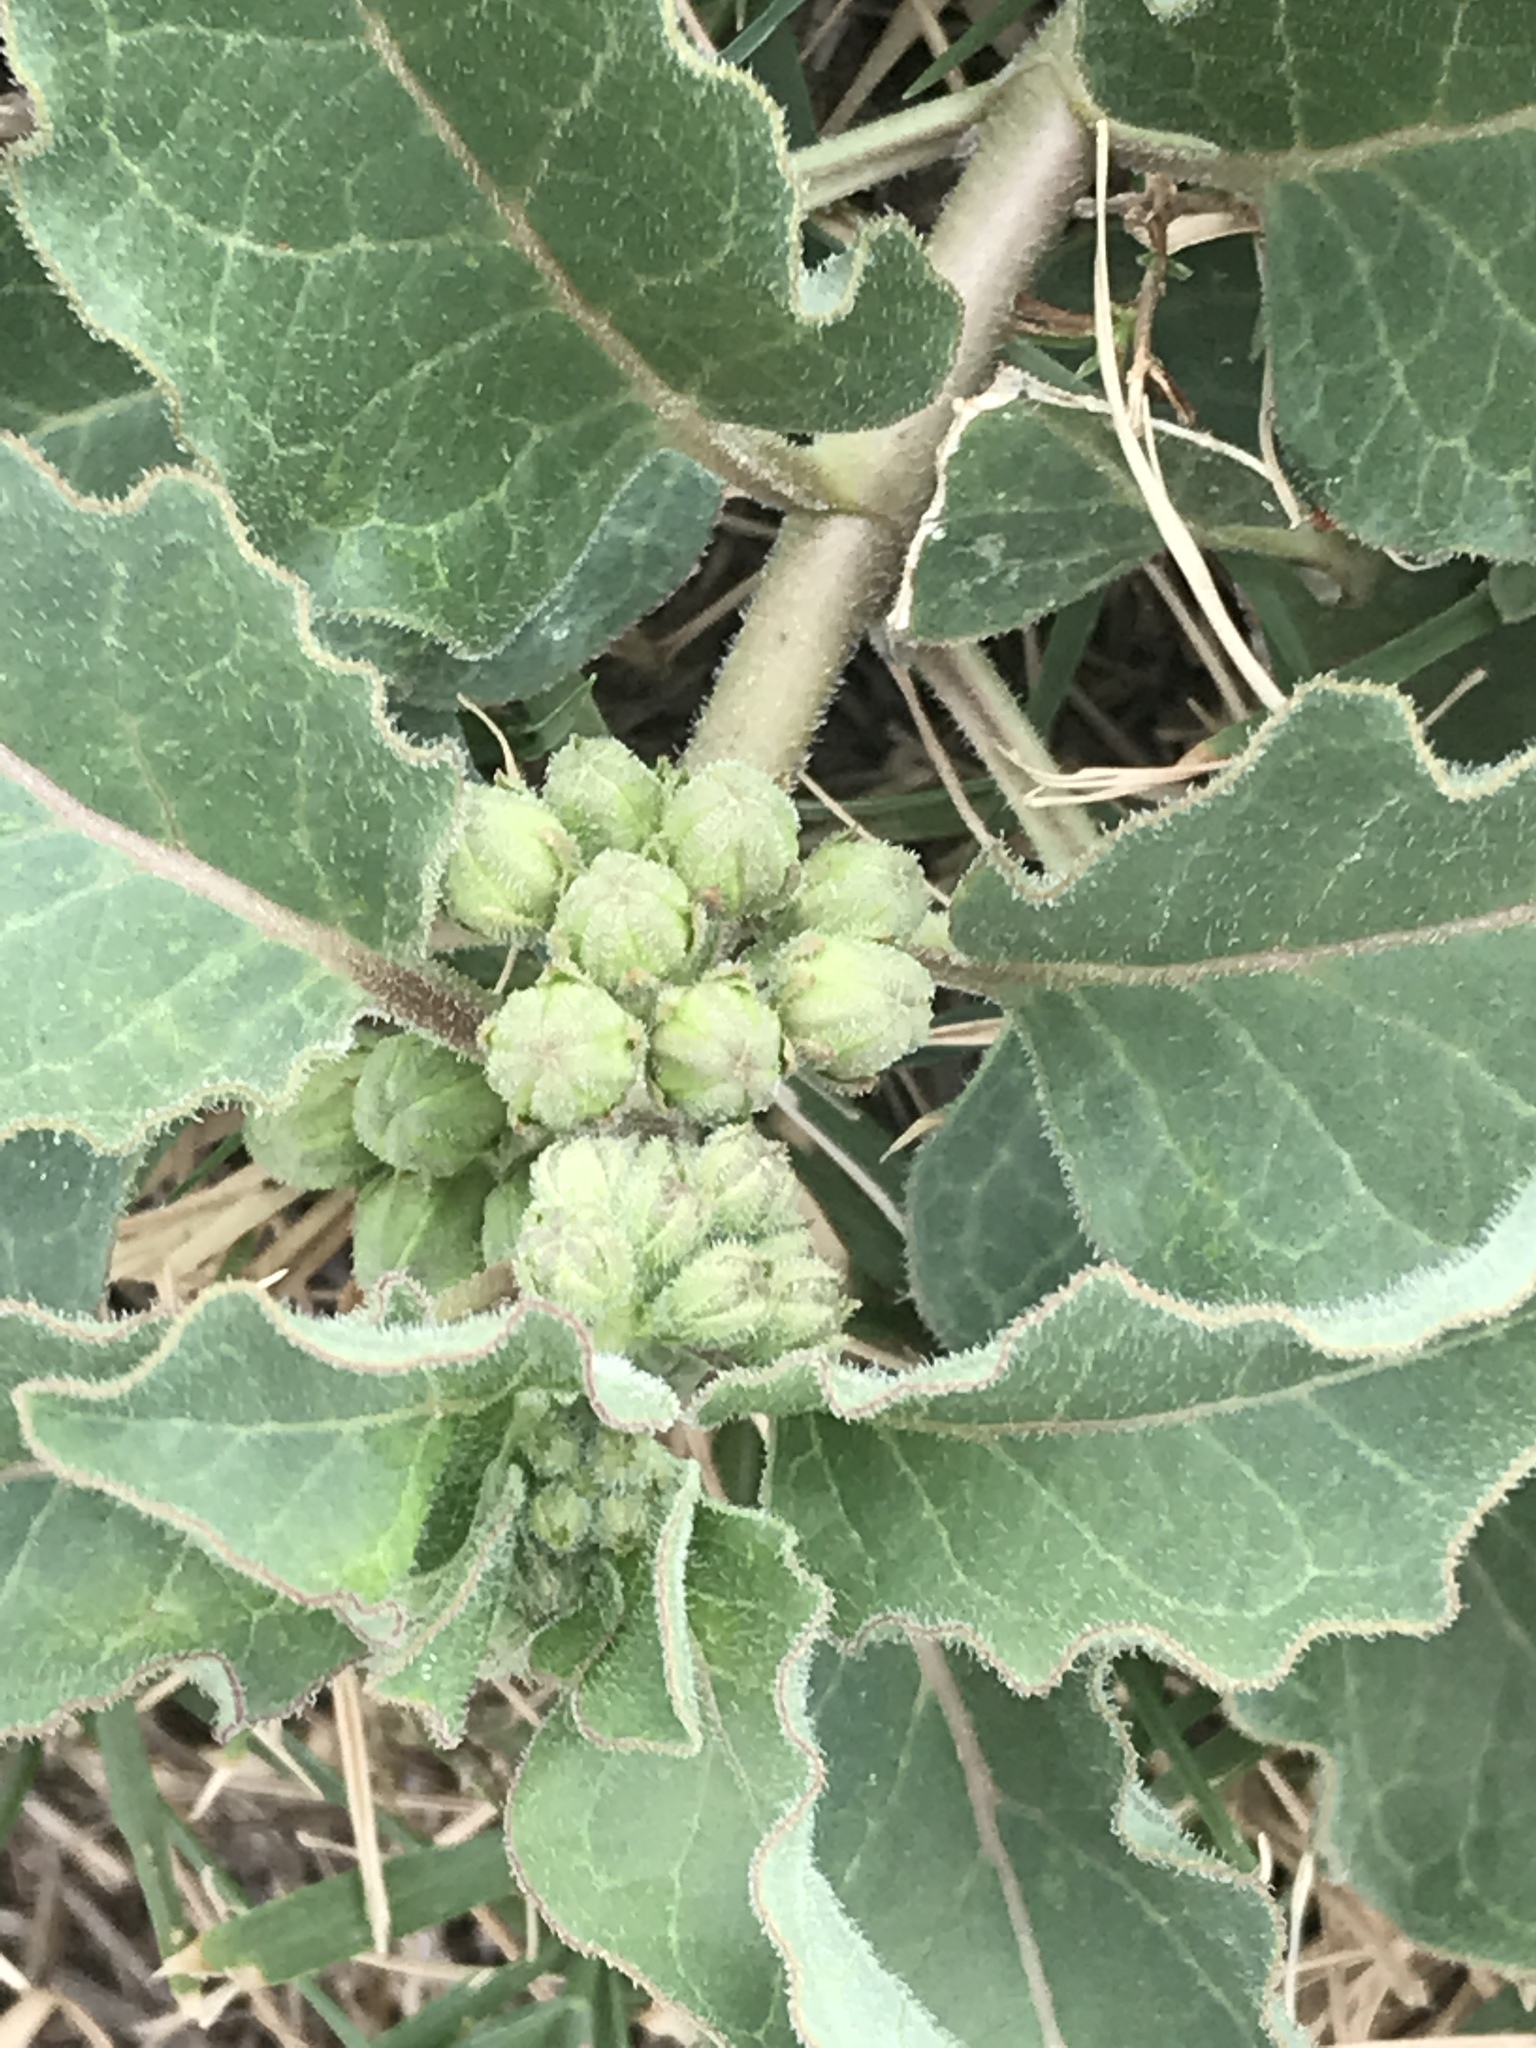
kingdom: Plantae
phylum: Tracheophyta
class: Magnoliopsida
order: Gentianales
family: Apocynaceae
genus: Asclepias
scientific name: Asclepias oenotheroides
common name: Zizotes milkweed
